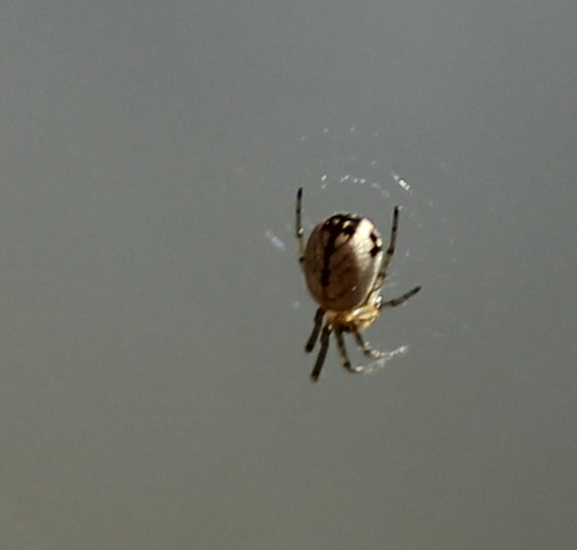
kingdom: Animalia
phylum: Arthropoda
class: Arachnida
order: Araneae
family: Tetragnathidae
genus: Leucauge
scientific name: Leucauge venusta
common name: Longjawed orb weavers
